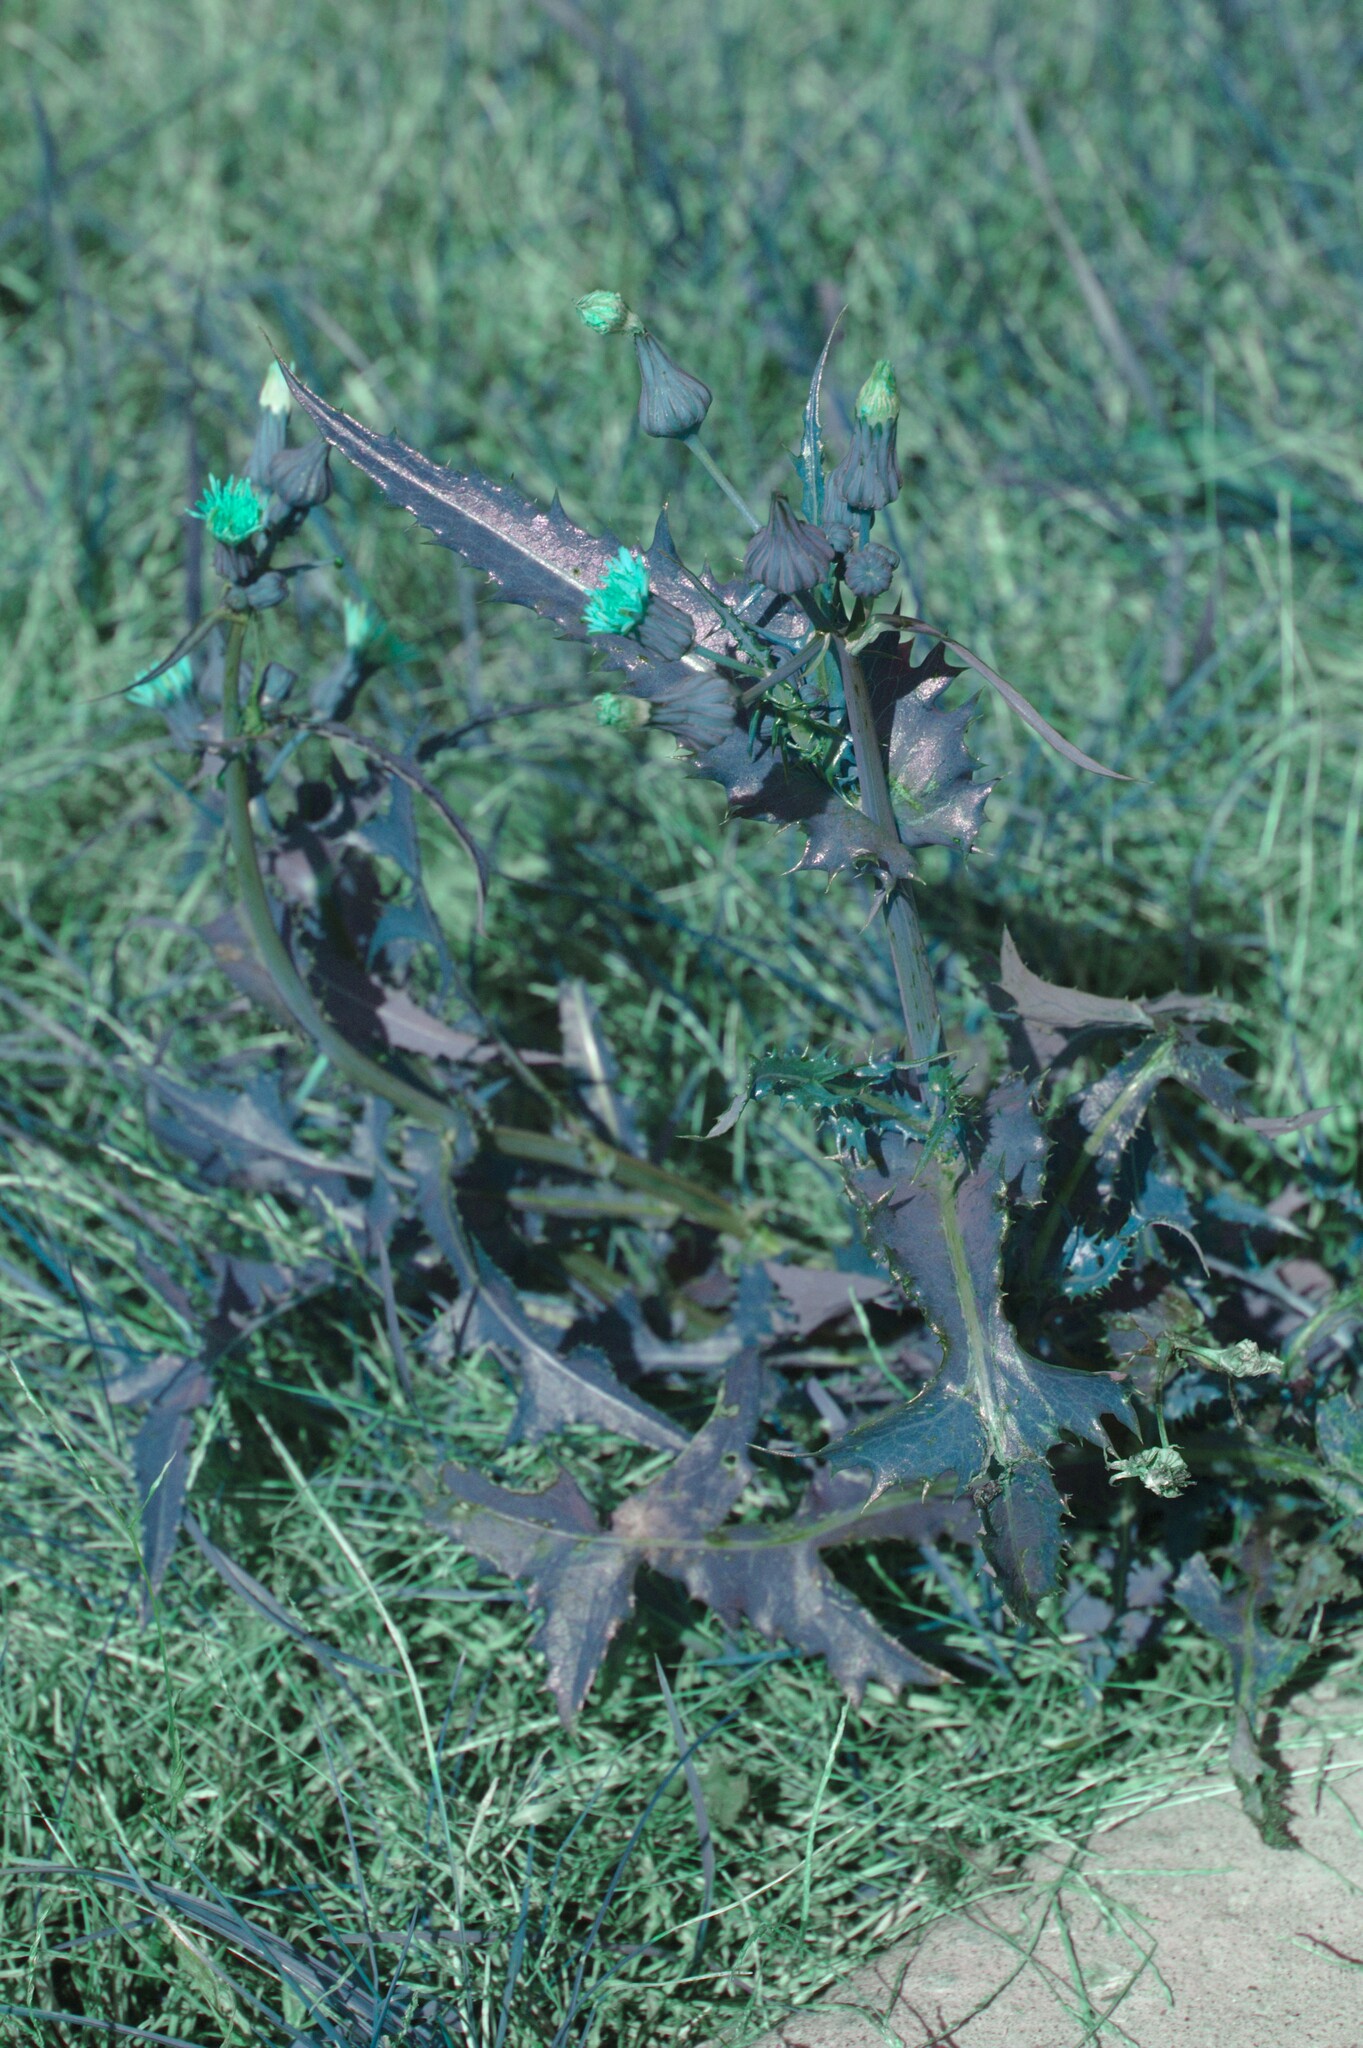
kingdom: Plantae
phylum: Tracheophyta
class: Magnoliopsida
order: Asterales
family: Asteraceae
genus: Sonchus
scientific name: Sonchus asper
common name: Prickly sow-thistle
